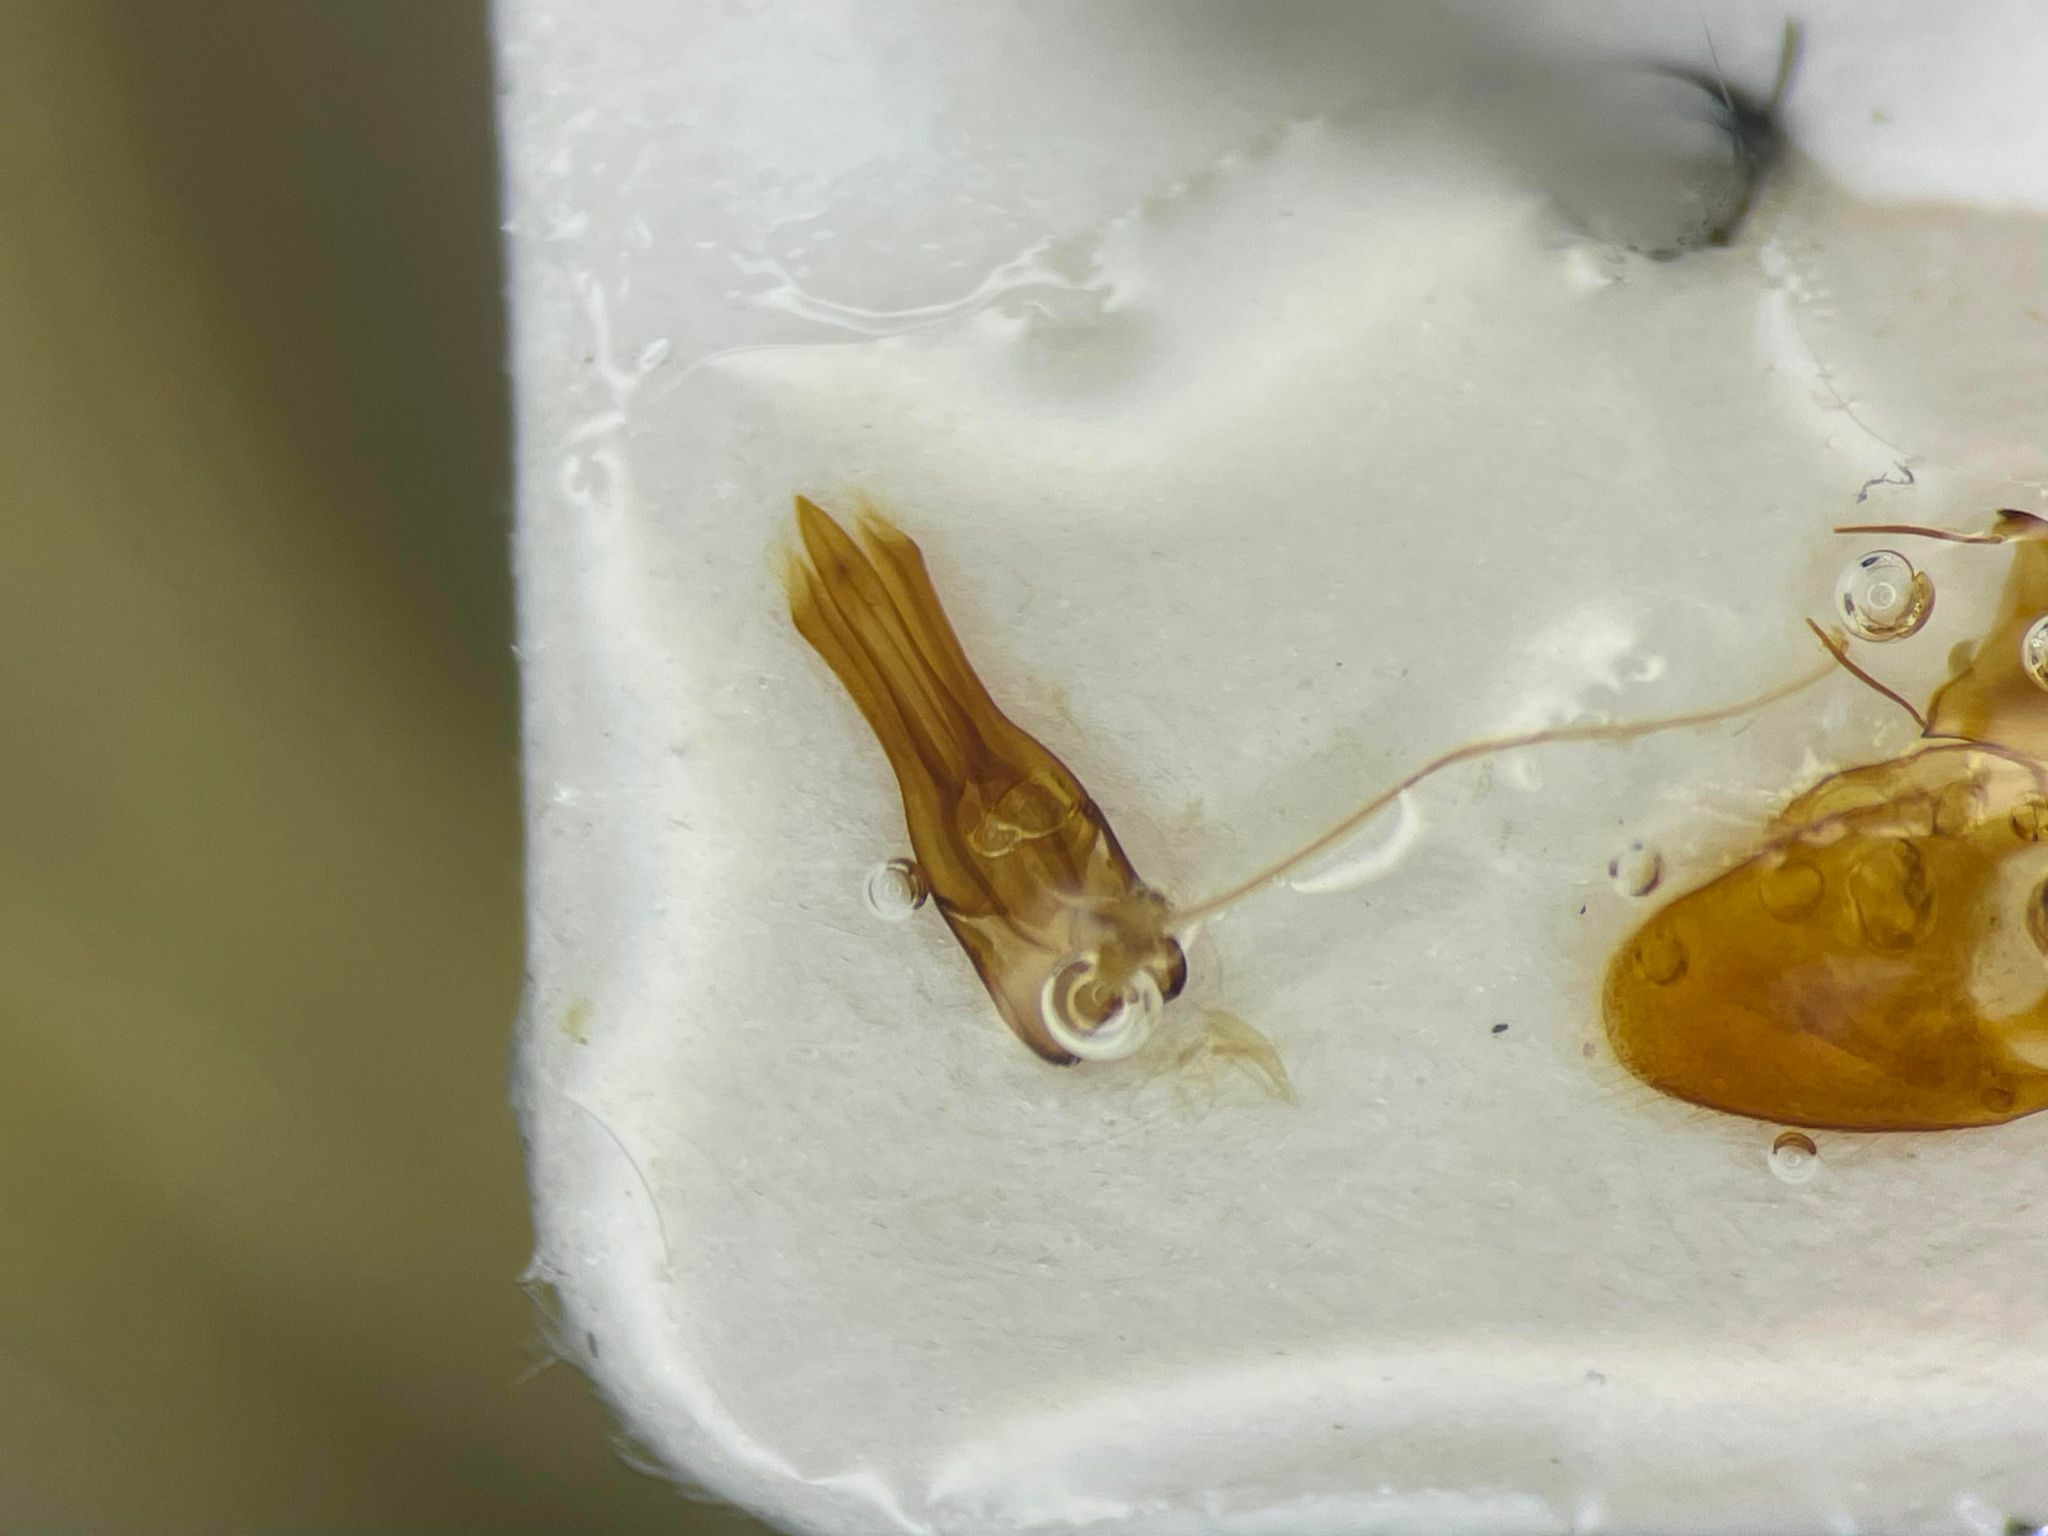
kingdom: Animalia
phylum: Arthropoda
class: Insecta
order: Coleoptera
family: Elateridae
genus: Melanotus
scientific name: Melanotus morosus
